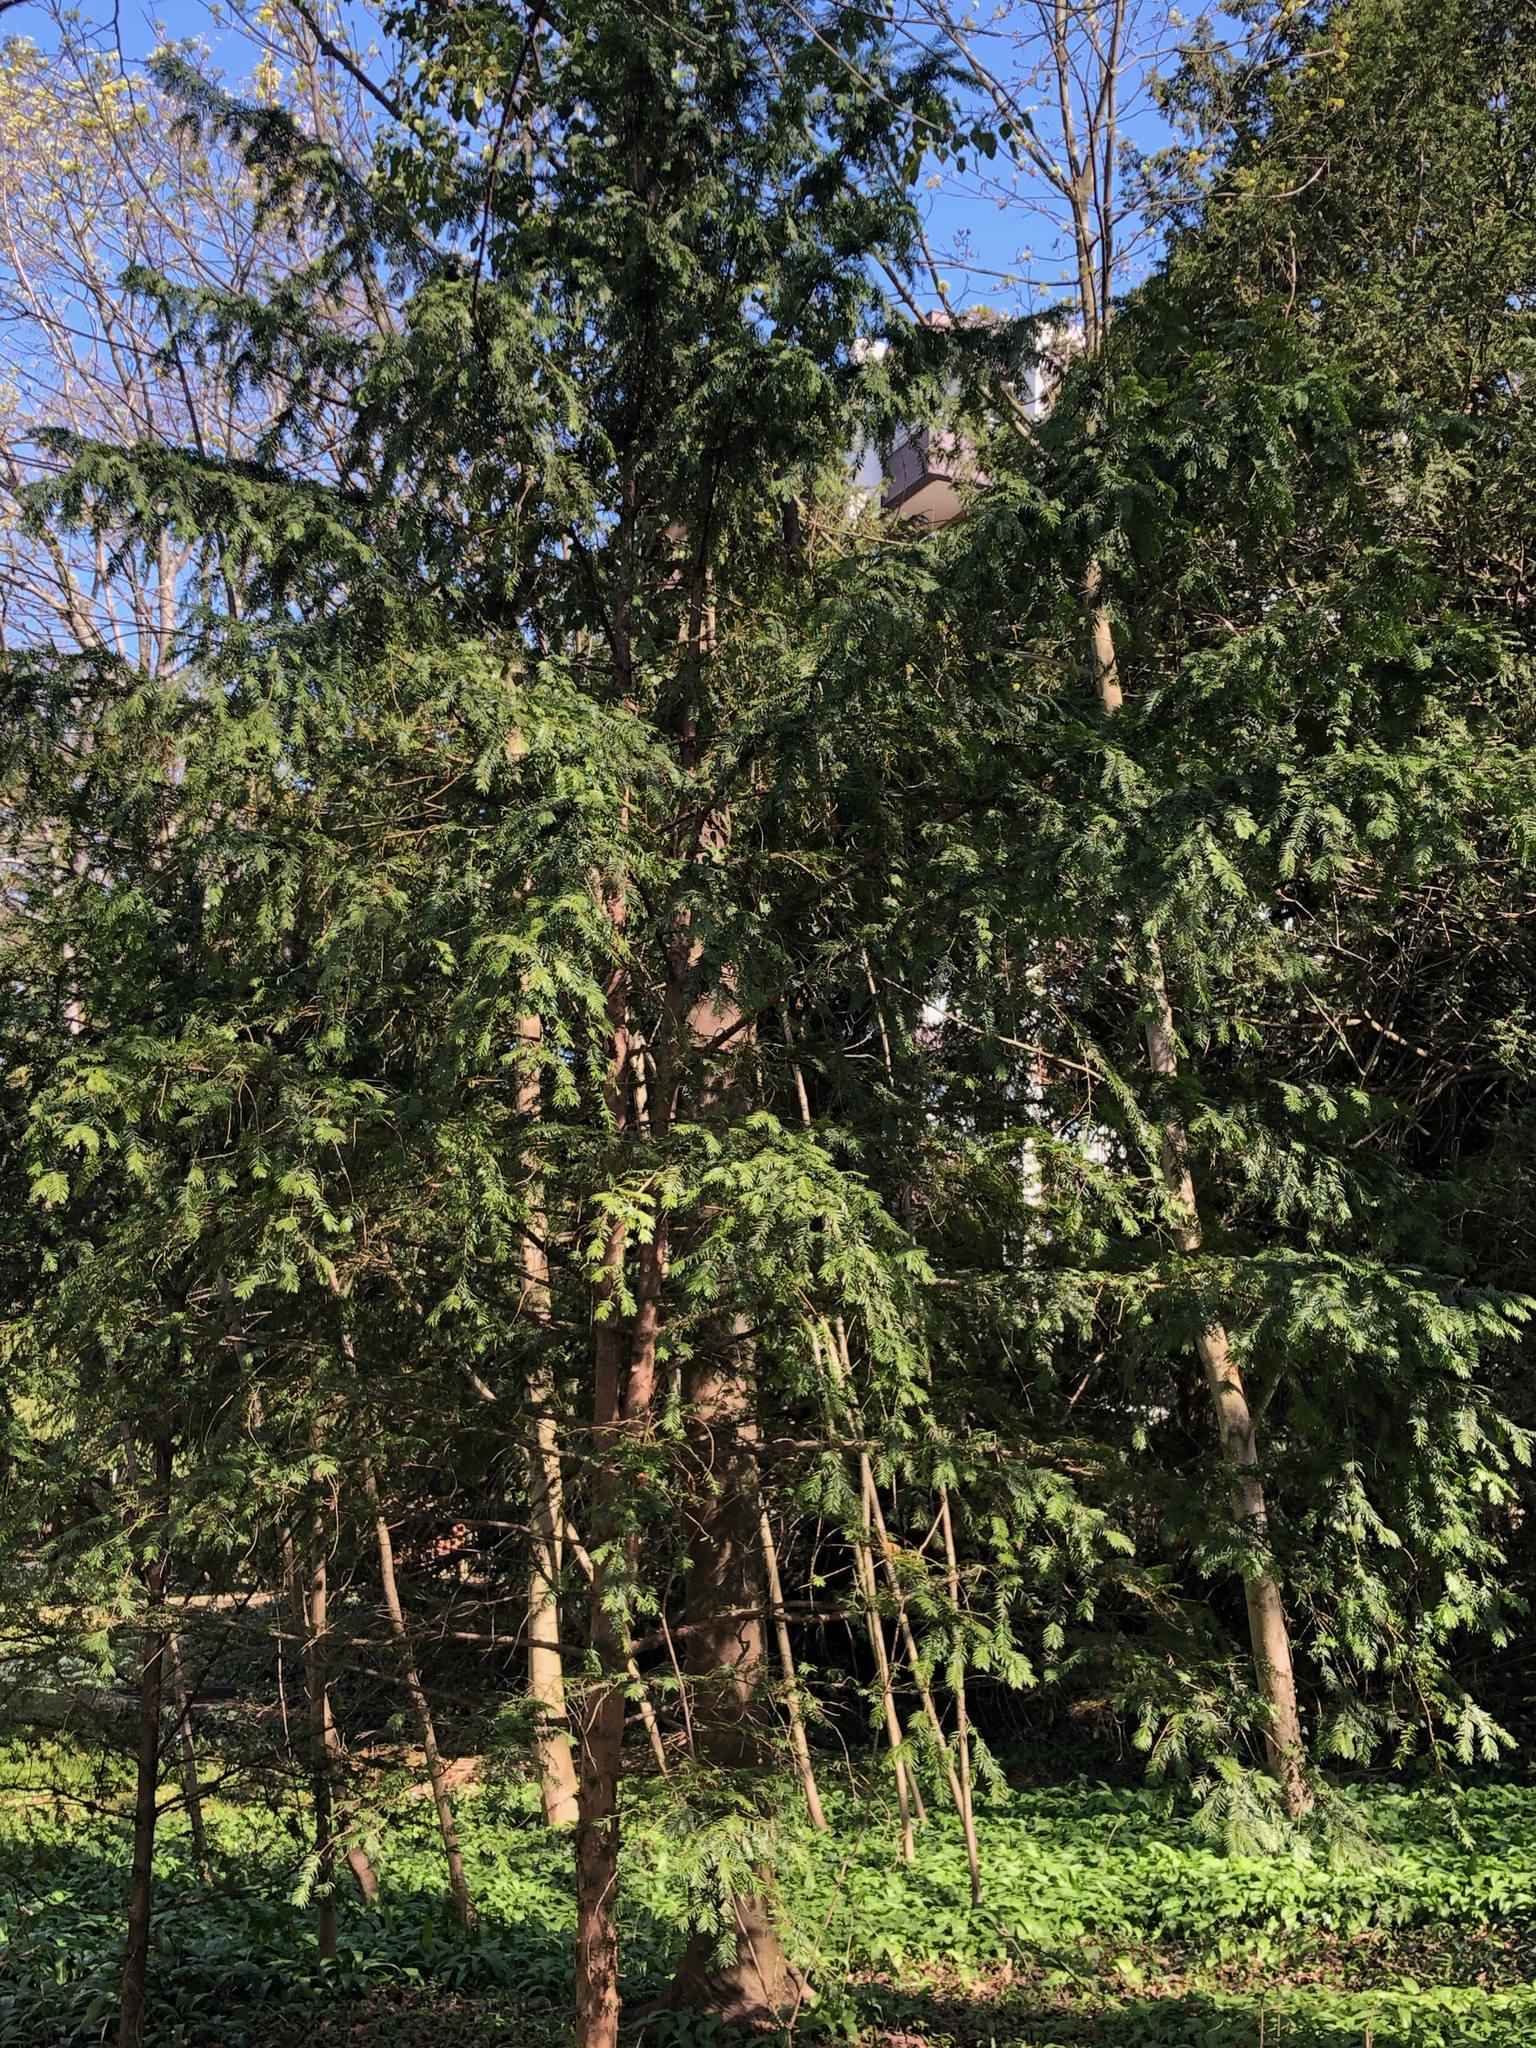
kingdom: Plantae
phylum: Tracheophyta
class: Pinopsida
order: Pinales
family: Taxaceae
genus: Taxus
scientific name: Taxus baccata
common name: Yew
